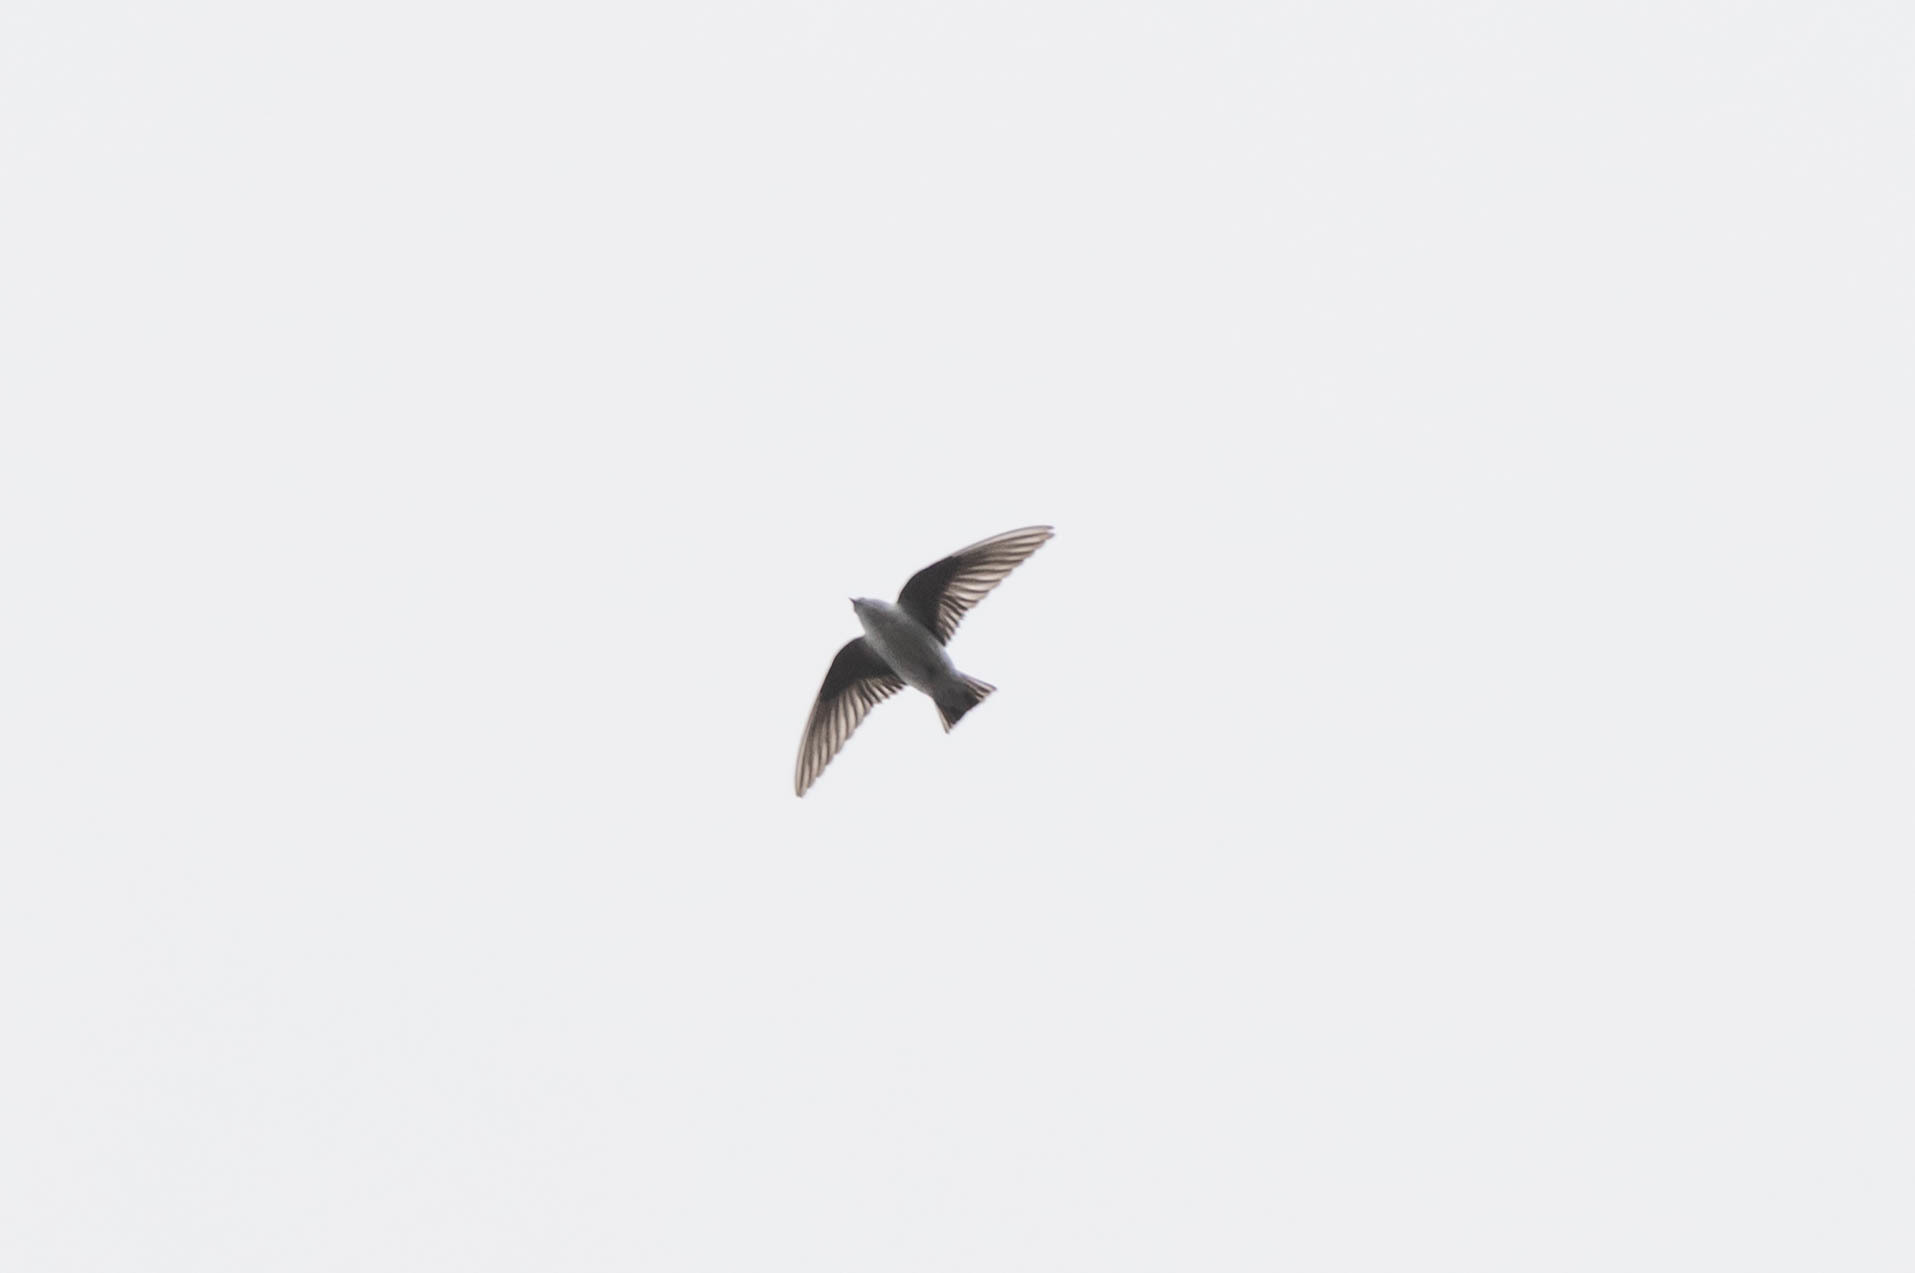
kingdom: Animalia
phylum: Chordata
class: Aves
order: Passeriformes
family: Hirundinidae
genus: Tachycineta
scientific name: Tachycineta thalassina
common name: Violet-green swallow
